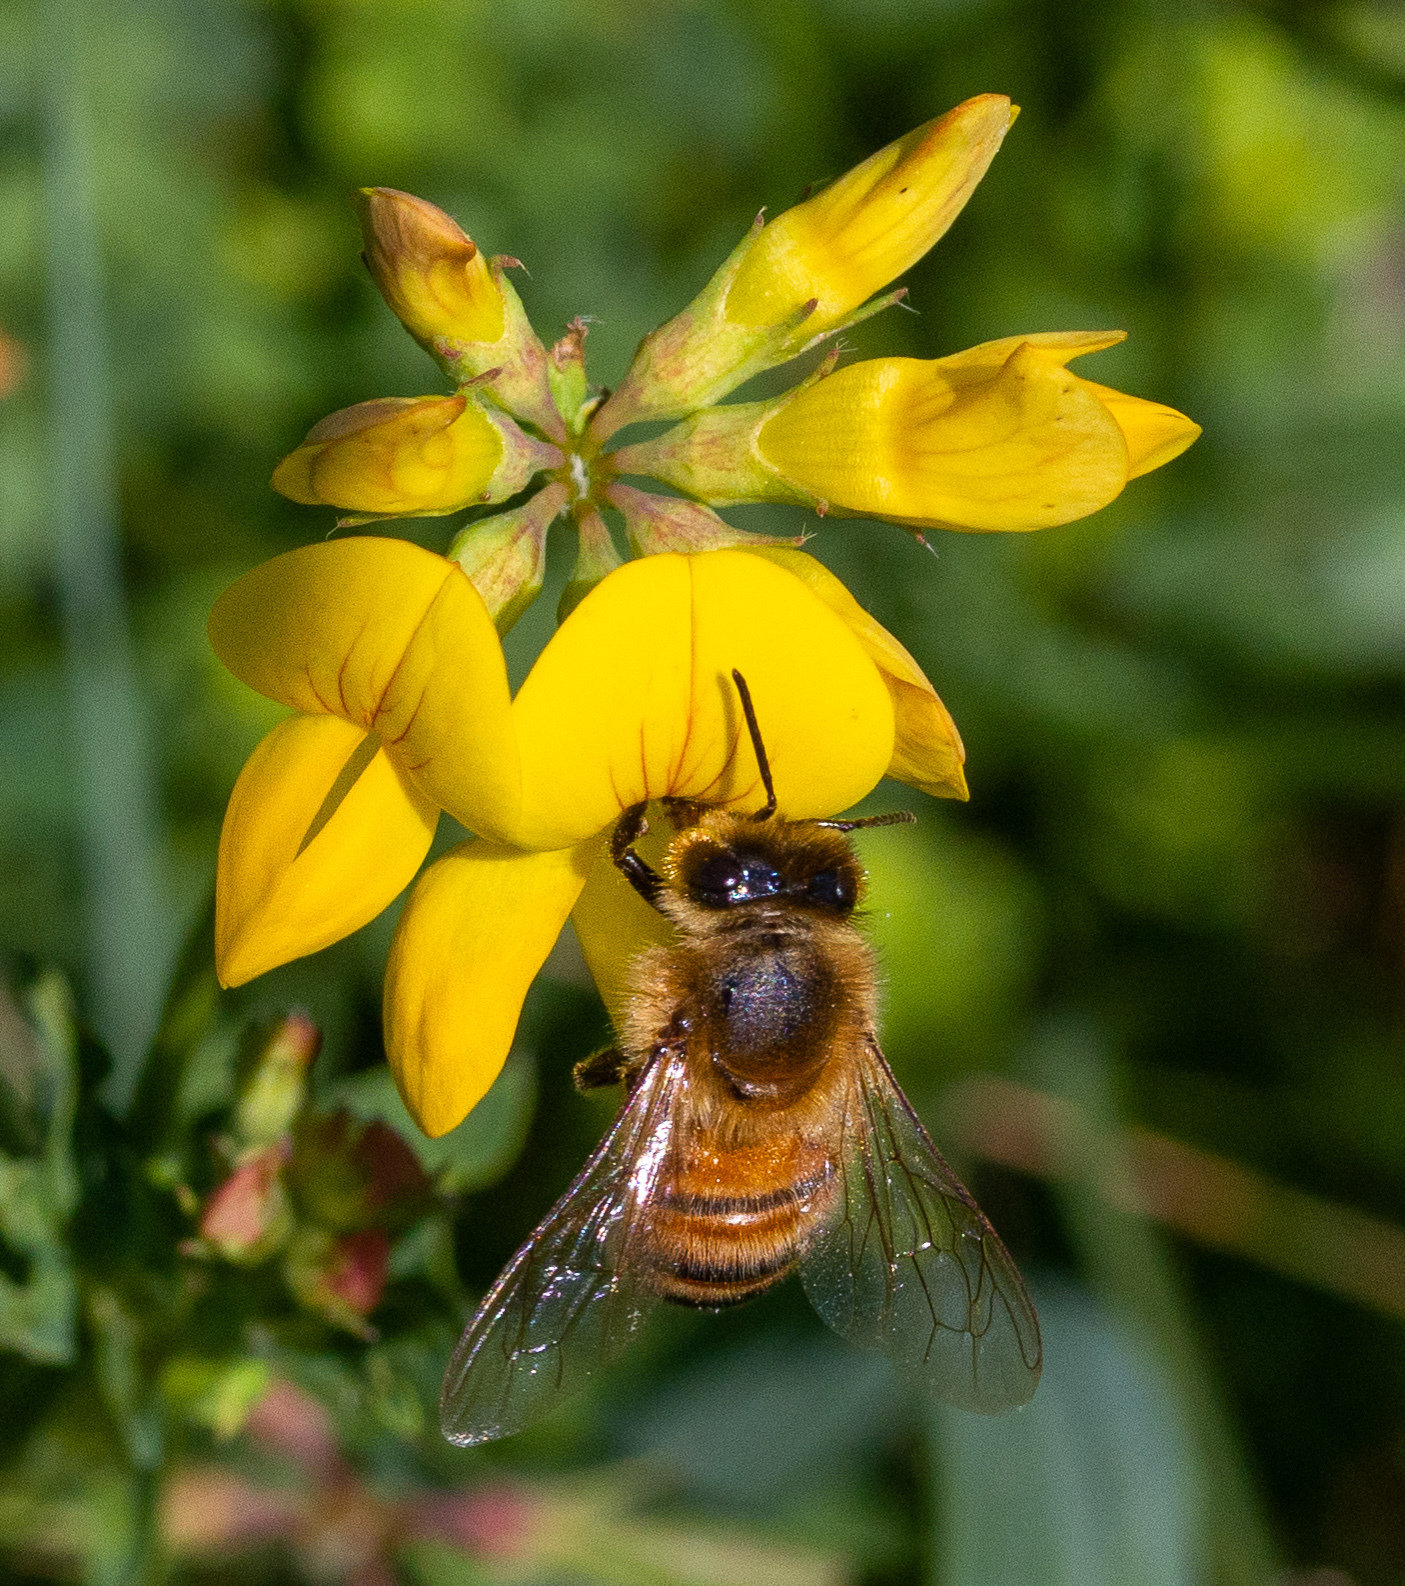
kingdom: Animalia
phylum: Arthropoda
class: Insecta
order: Hymenoptera
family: Apidae
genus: Apis
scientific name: Apis mellifera
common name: Honey bee
